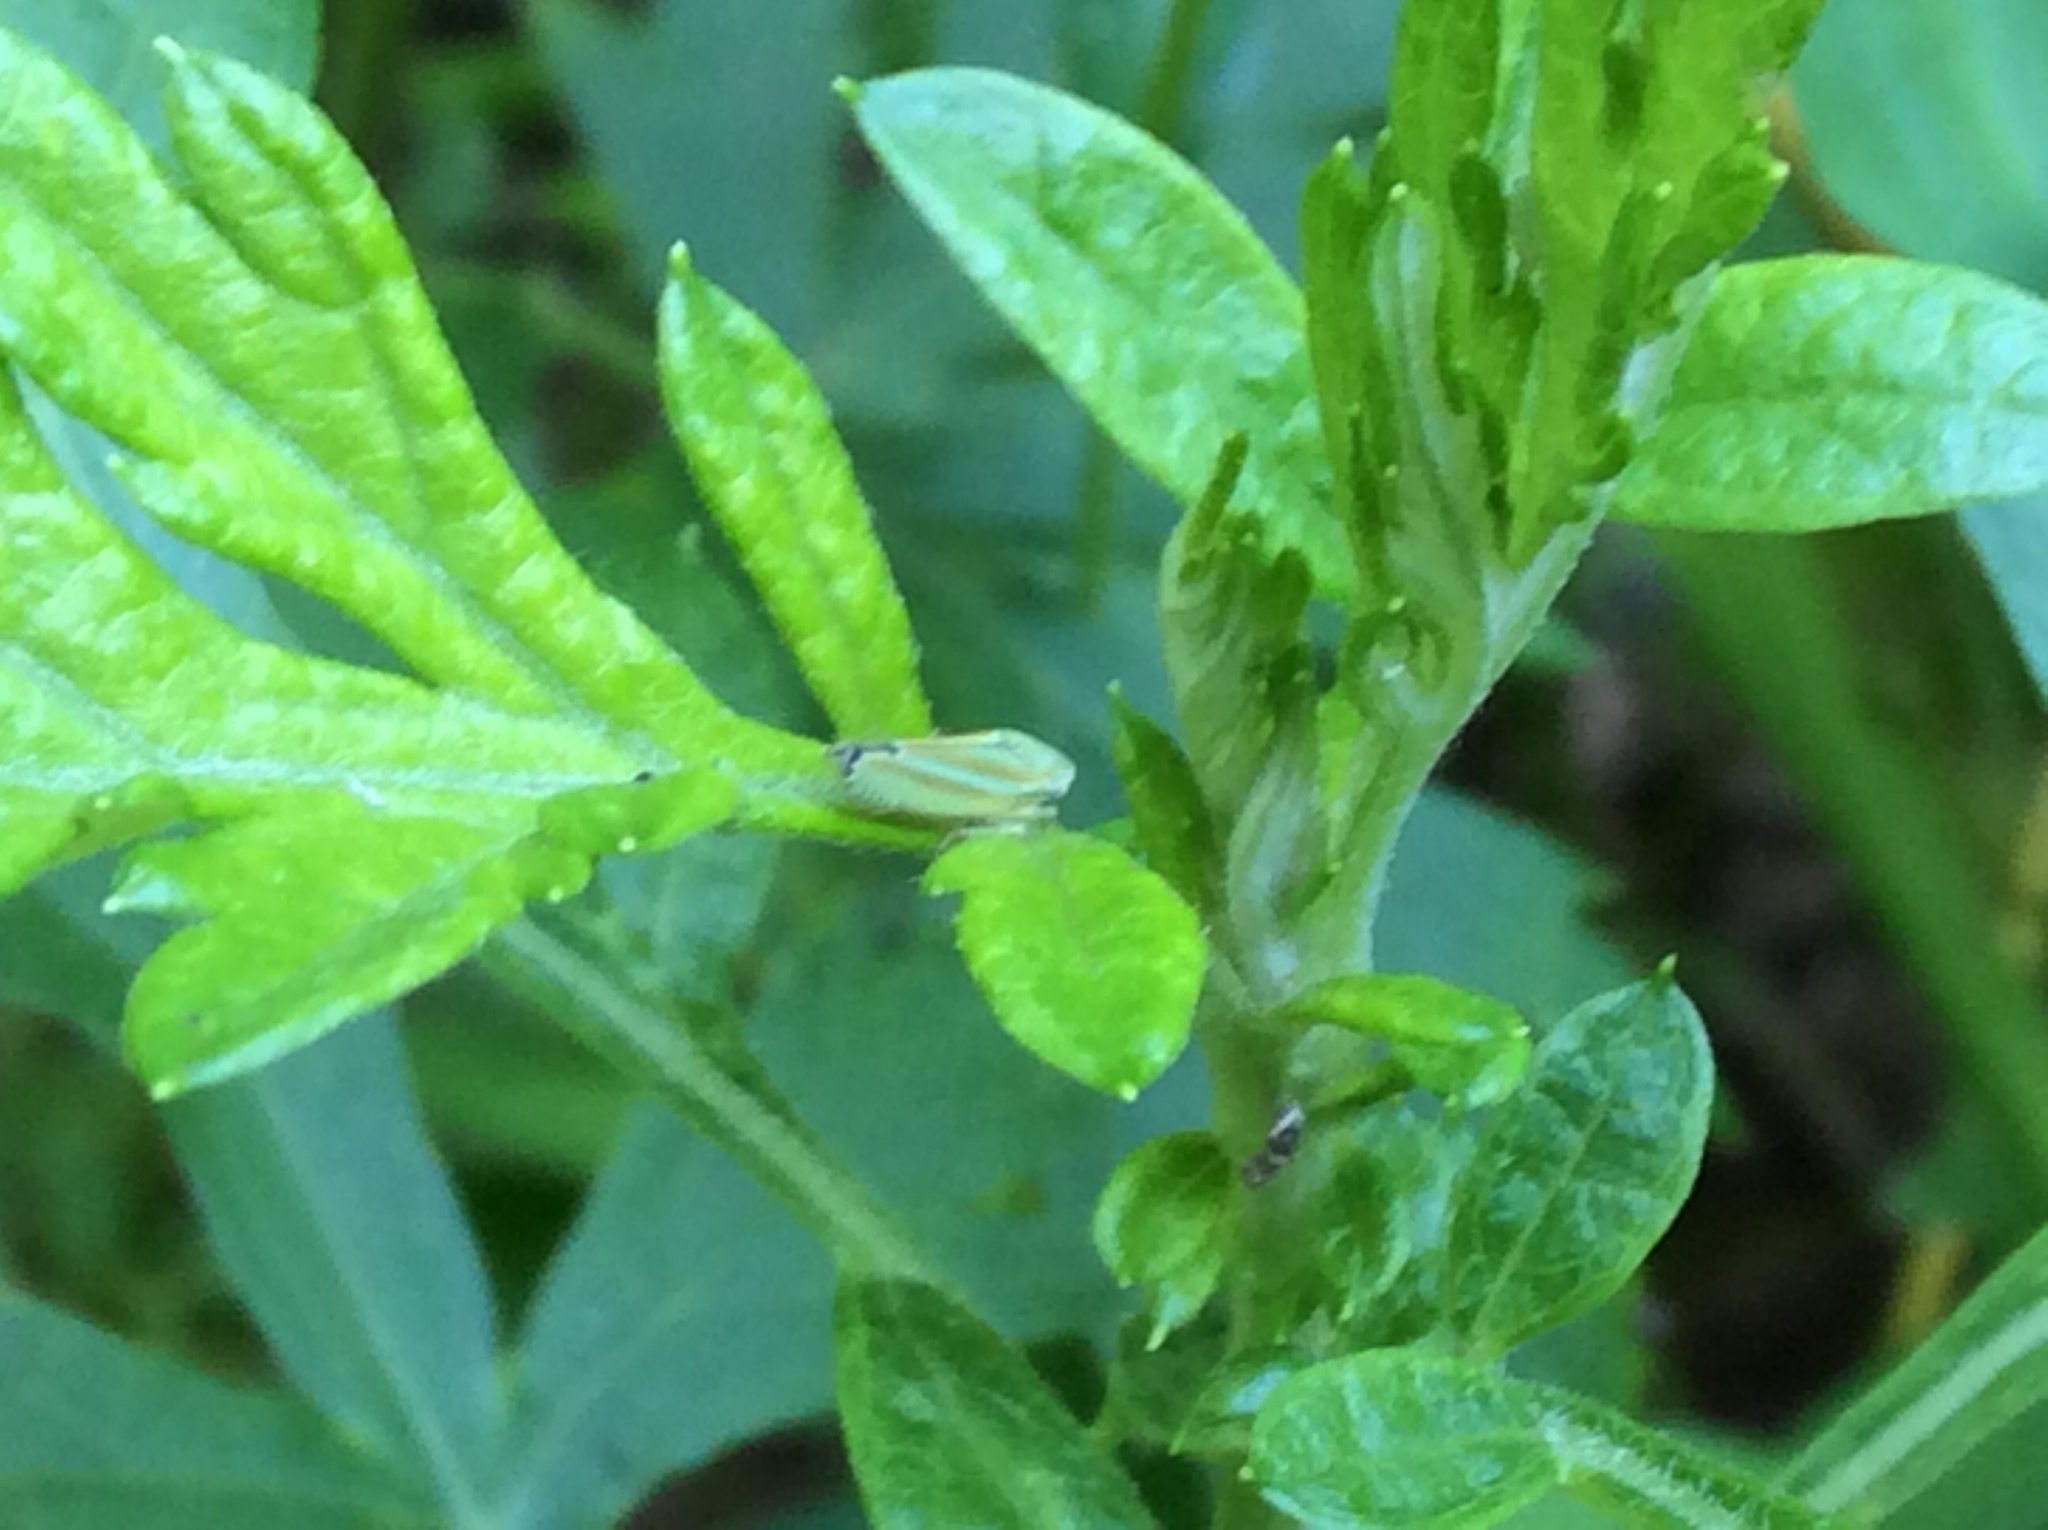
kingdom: Animalia
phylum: Arthropoda
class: Insecta
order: Hemiptera
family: Cicadellidae
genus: Graphocephala
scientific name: Graphocephala versuta
